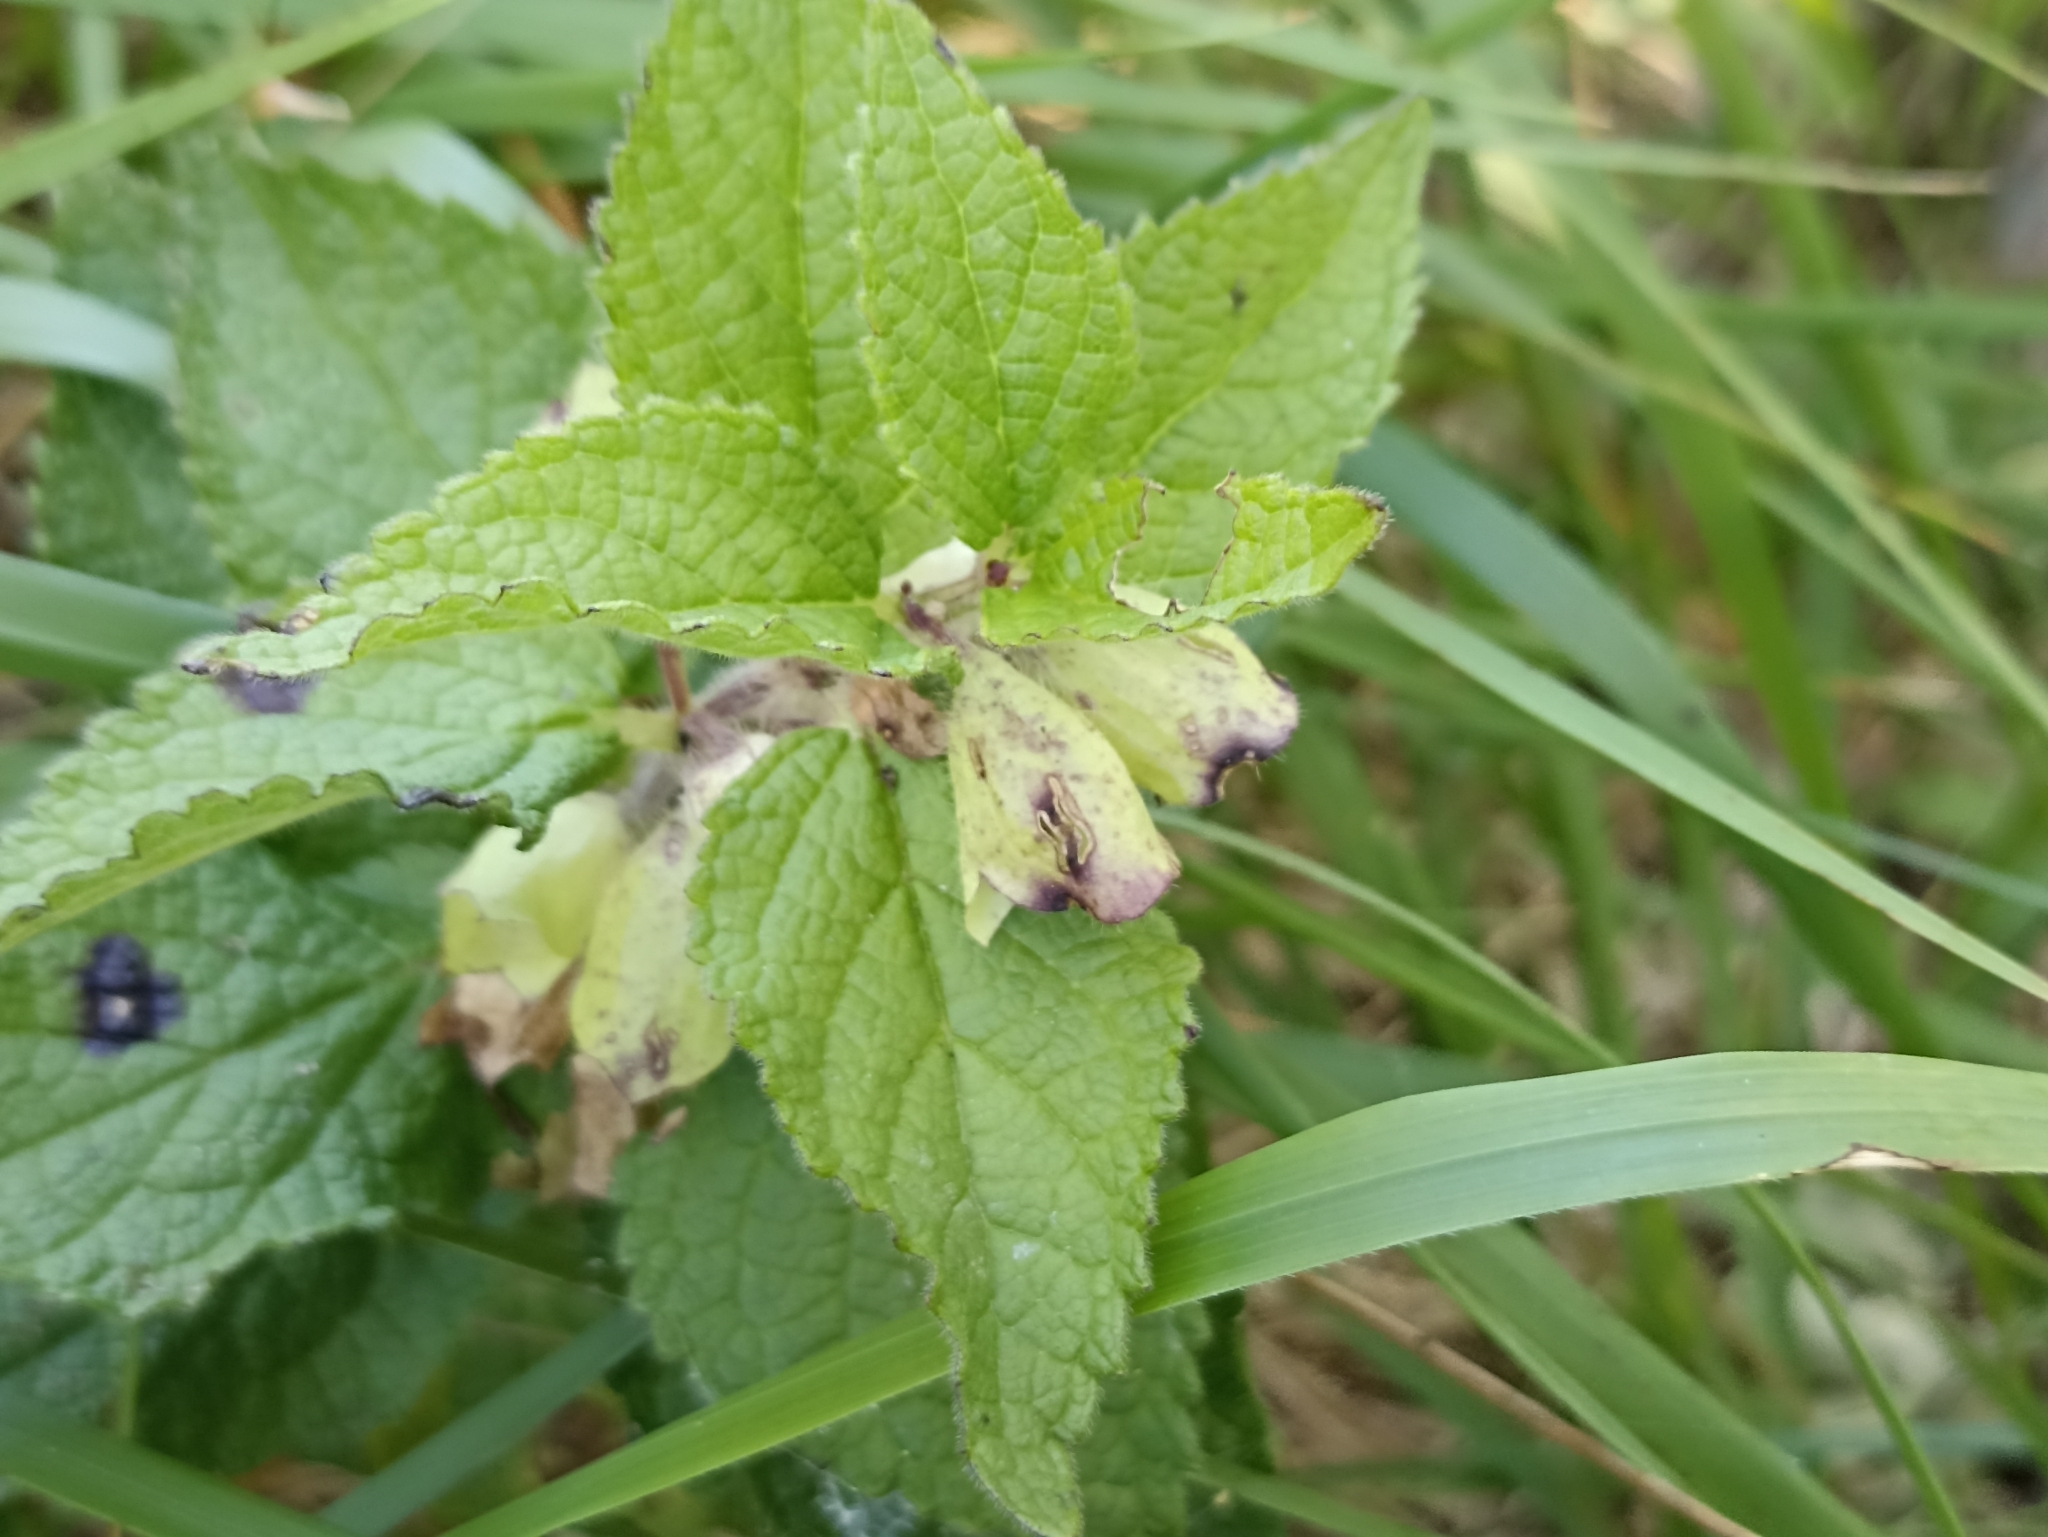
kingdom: Plantae
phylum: Tracheophyta
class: Magnoliopsida
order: Lamiales
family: Lamiaceae
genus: Melittis
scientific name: Melittis melissophyllum
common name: Bastard balm
